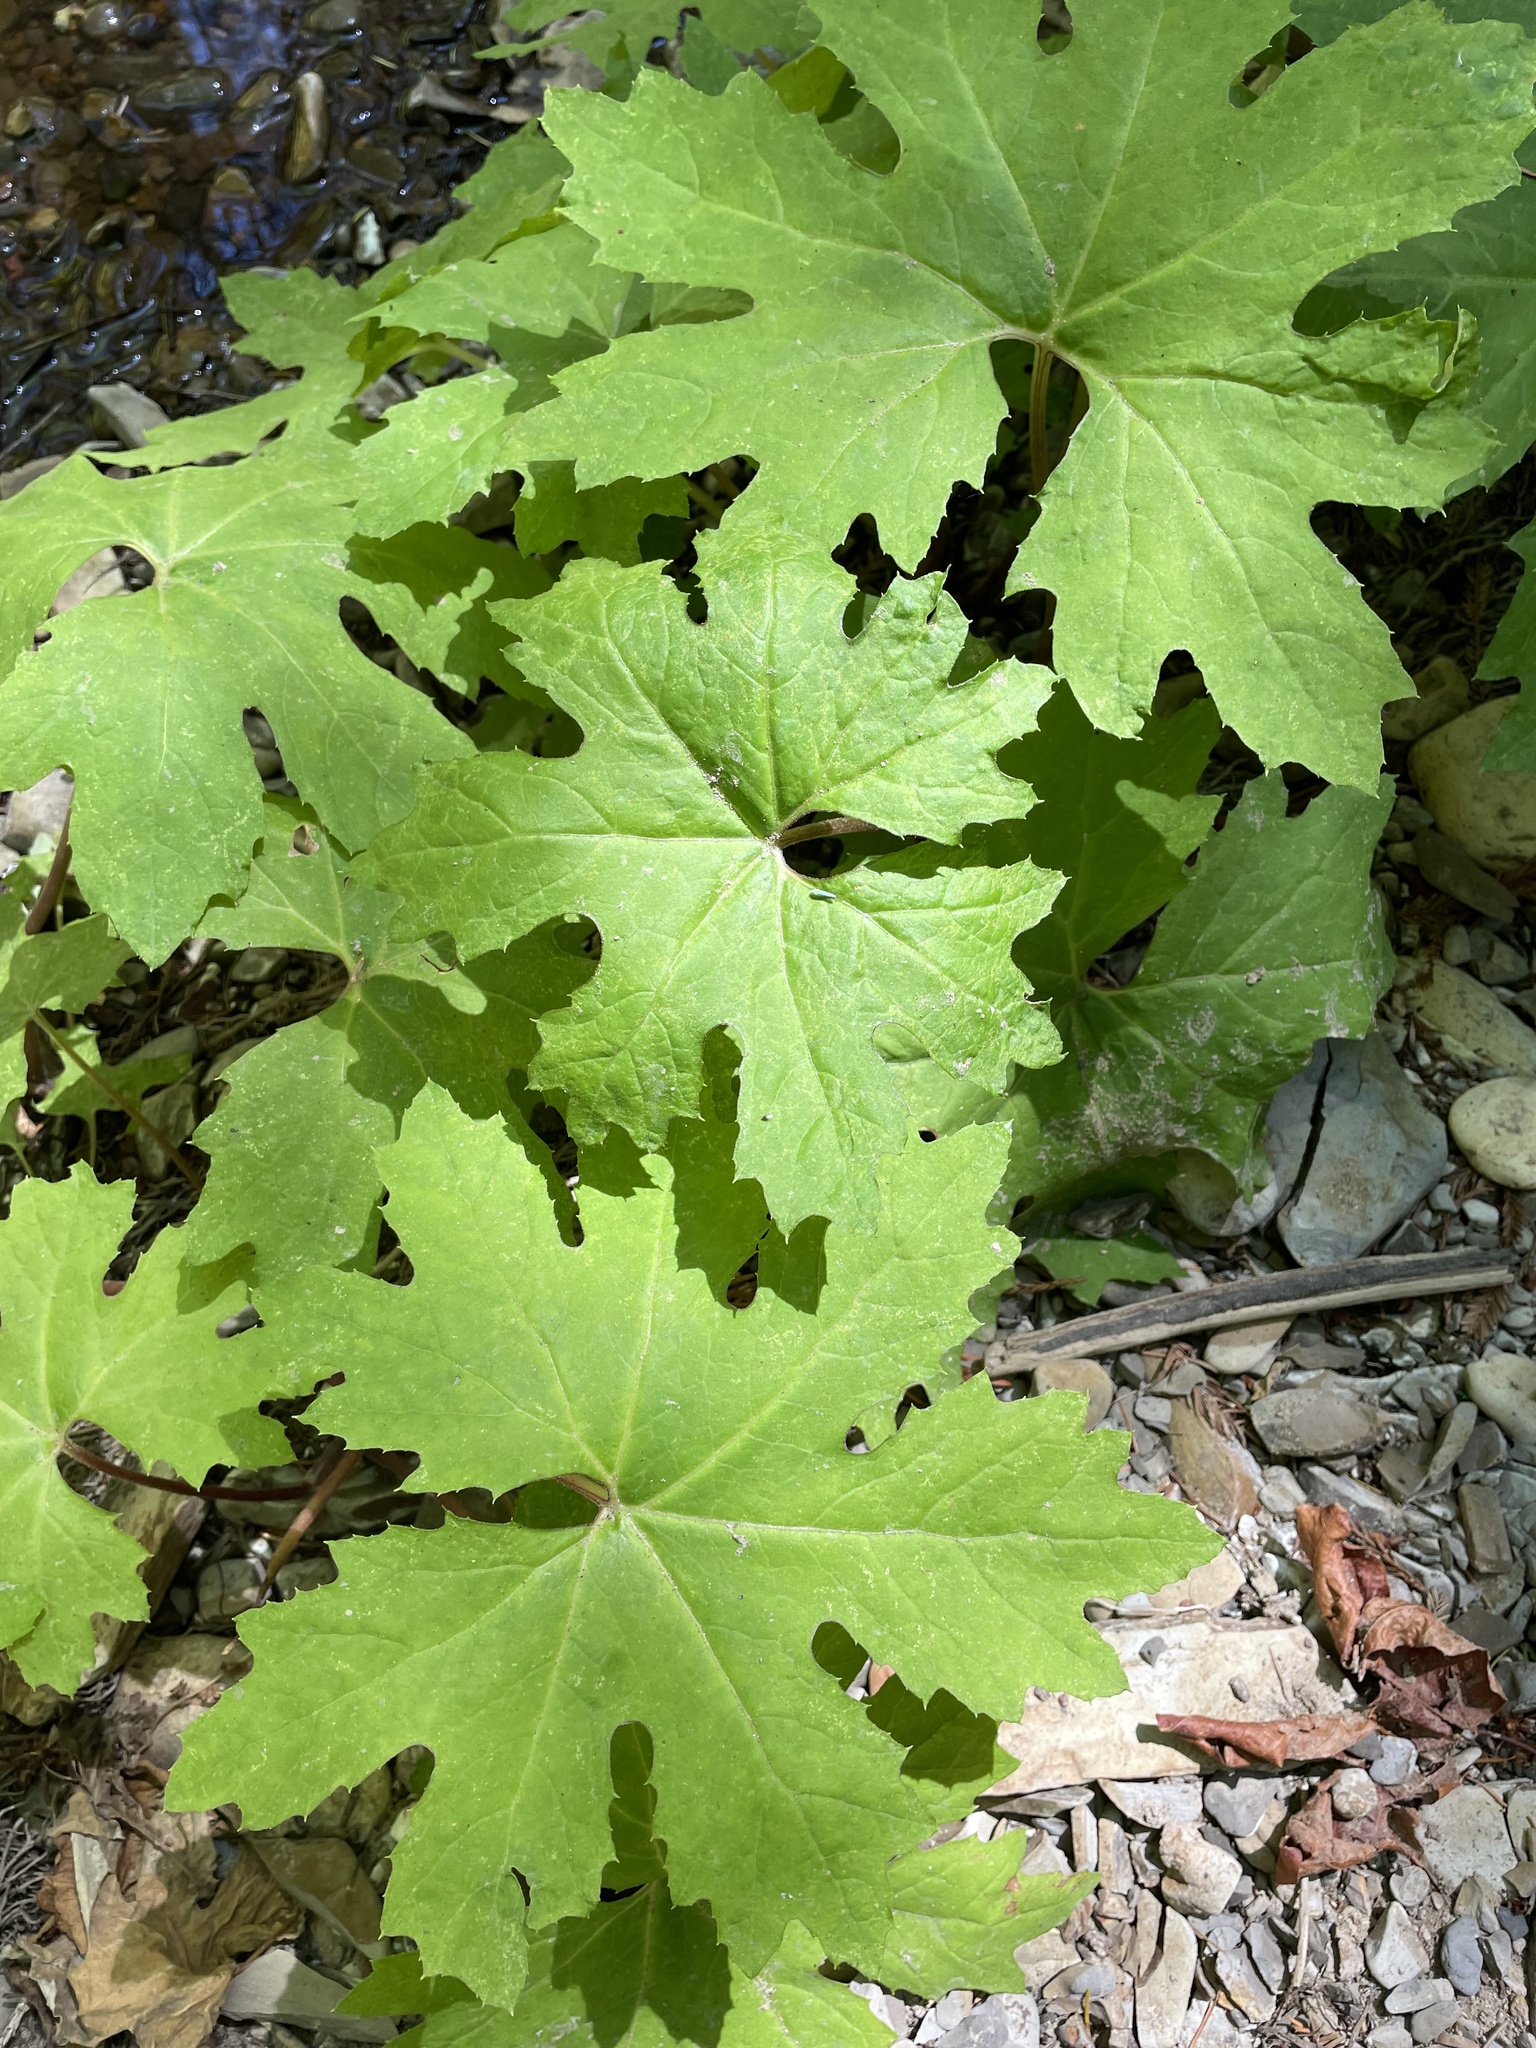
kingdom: Plantae
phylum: Tracheophyta
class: Magnoliopsida
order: Asterales
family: Asteraceae
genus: Petasites
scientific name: Petasites frigidus
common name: Arctic butterbur
